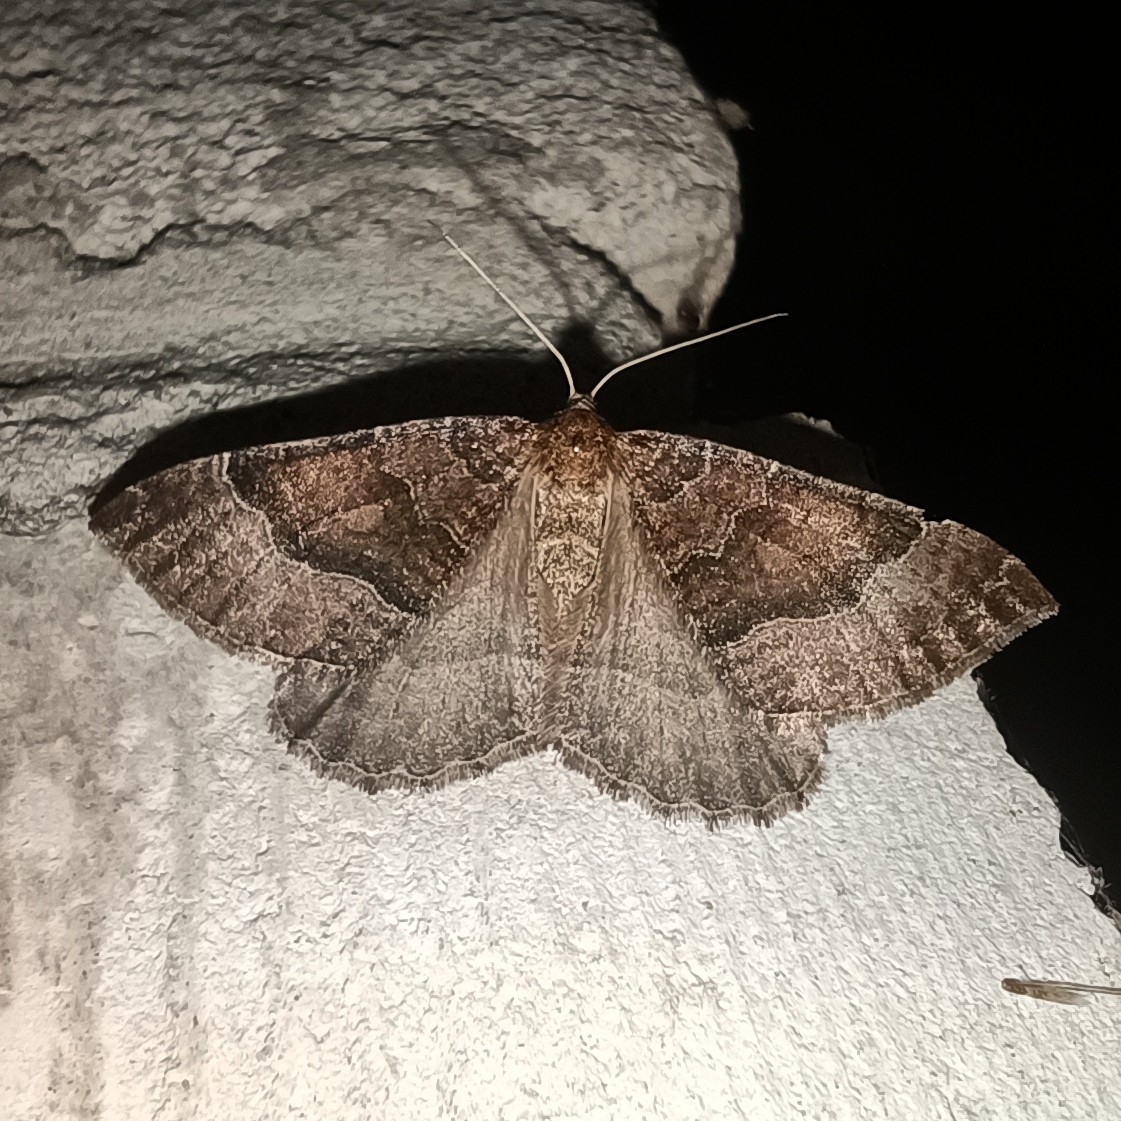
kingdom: Animalia
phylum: Arthropoda
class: Insecta
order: Lepidoptera
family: Geometridae
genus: Larentia
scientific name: Larentia clavaria
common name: Mallow
